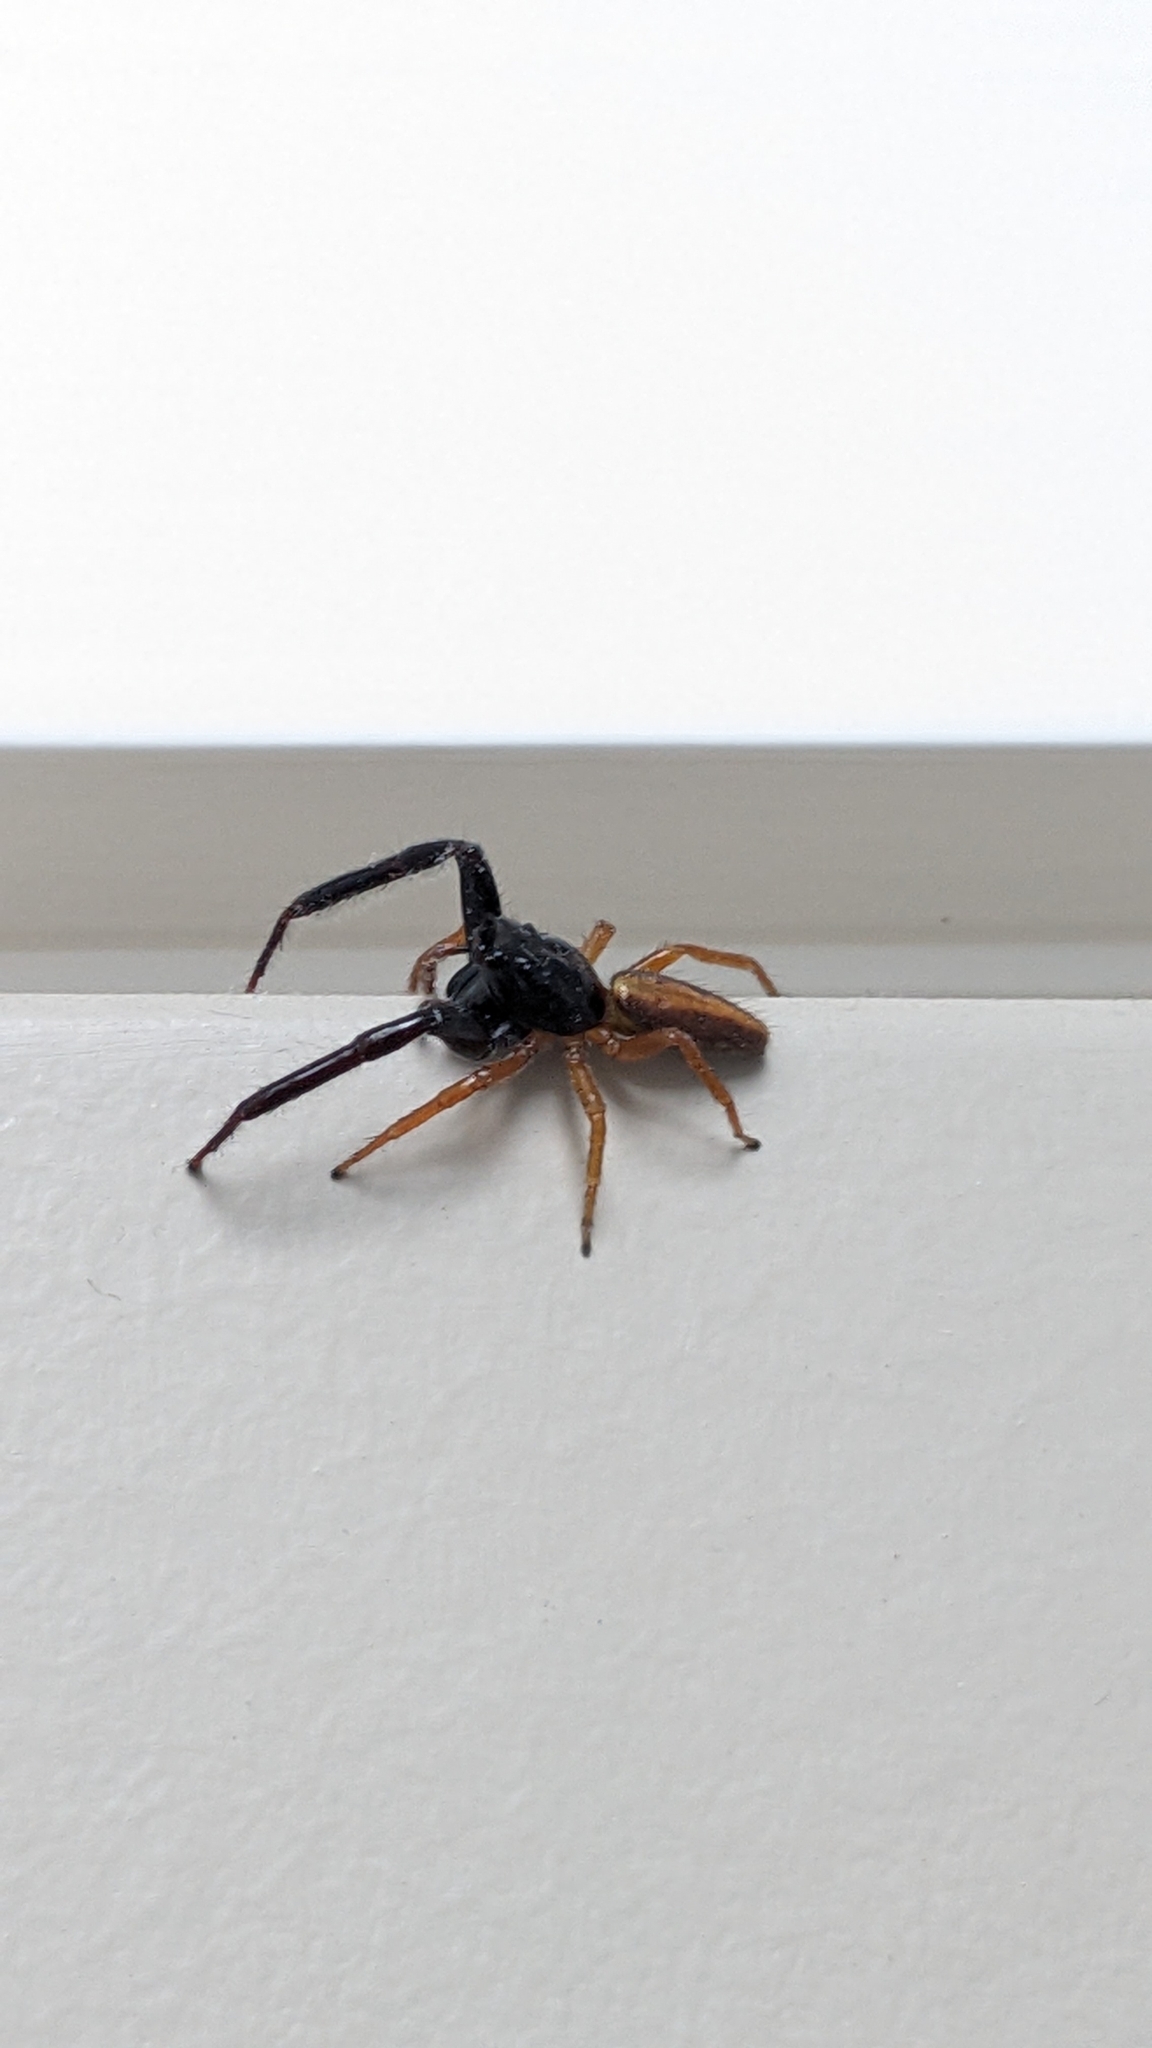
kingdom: Animalia
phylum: Arthropoda
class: Arachnida
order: Araneae
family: Salticidae
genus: Trite
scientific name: Trite planiceps
